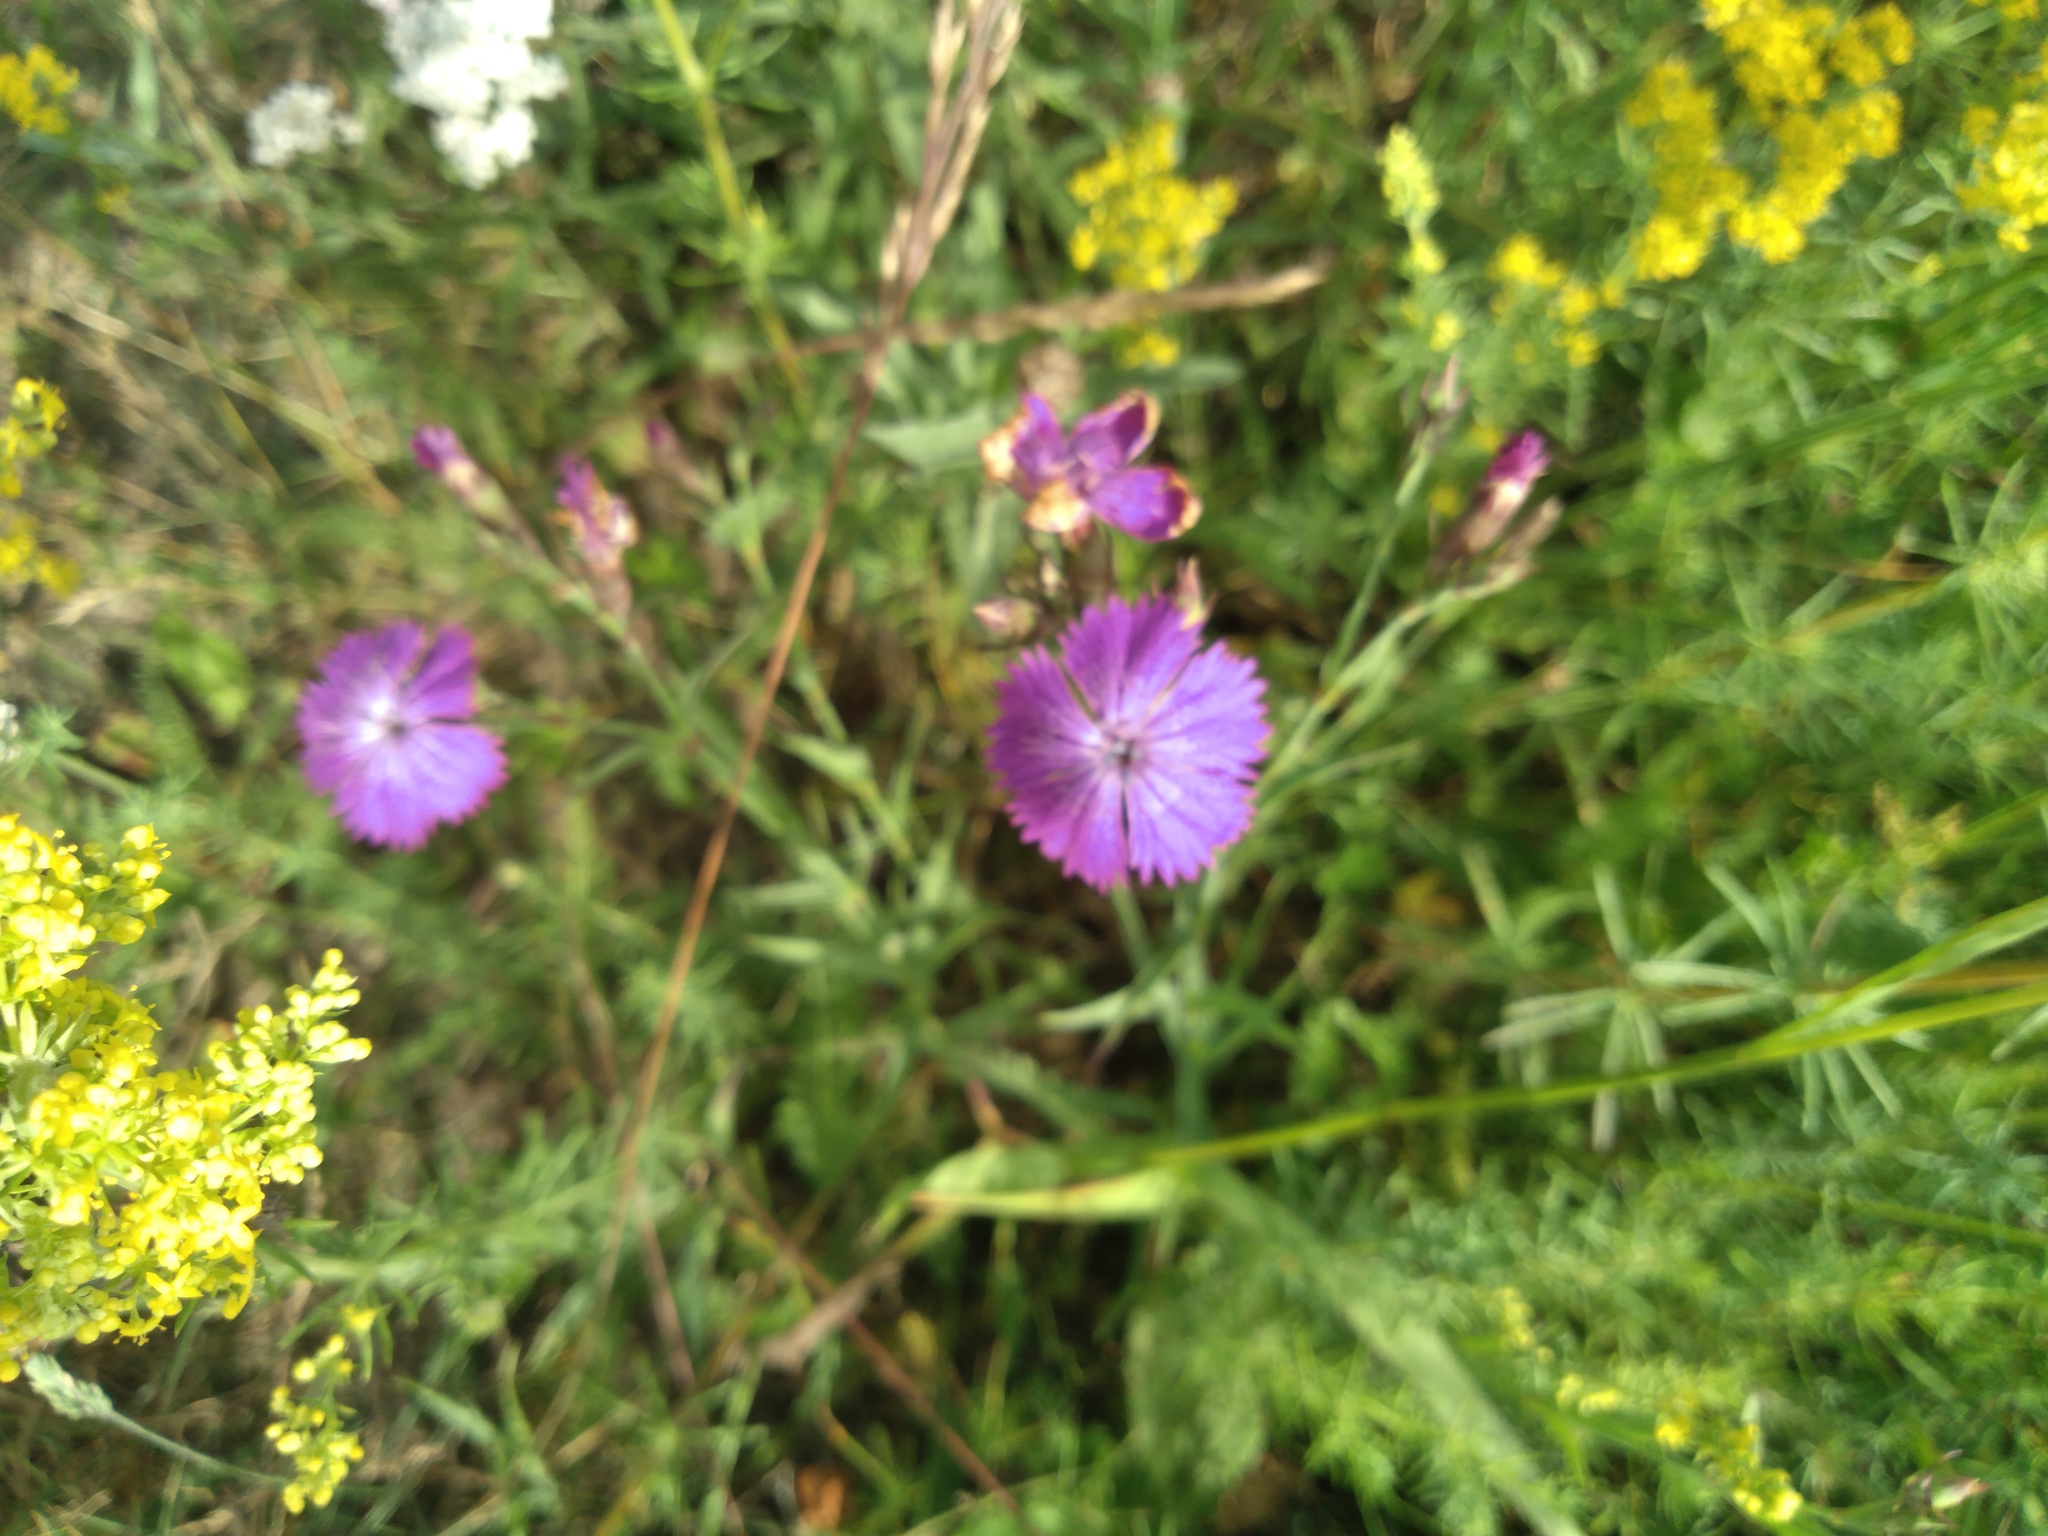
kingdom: Plantae
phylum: Tracheophyta
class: Magnoliopsida
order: Caryophyllales
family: Caryophyllaceae
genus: Dianthus
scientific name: Dianthus chinensis
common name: Rainbow pink
